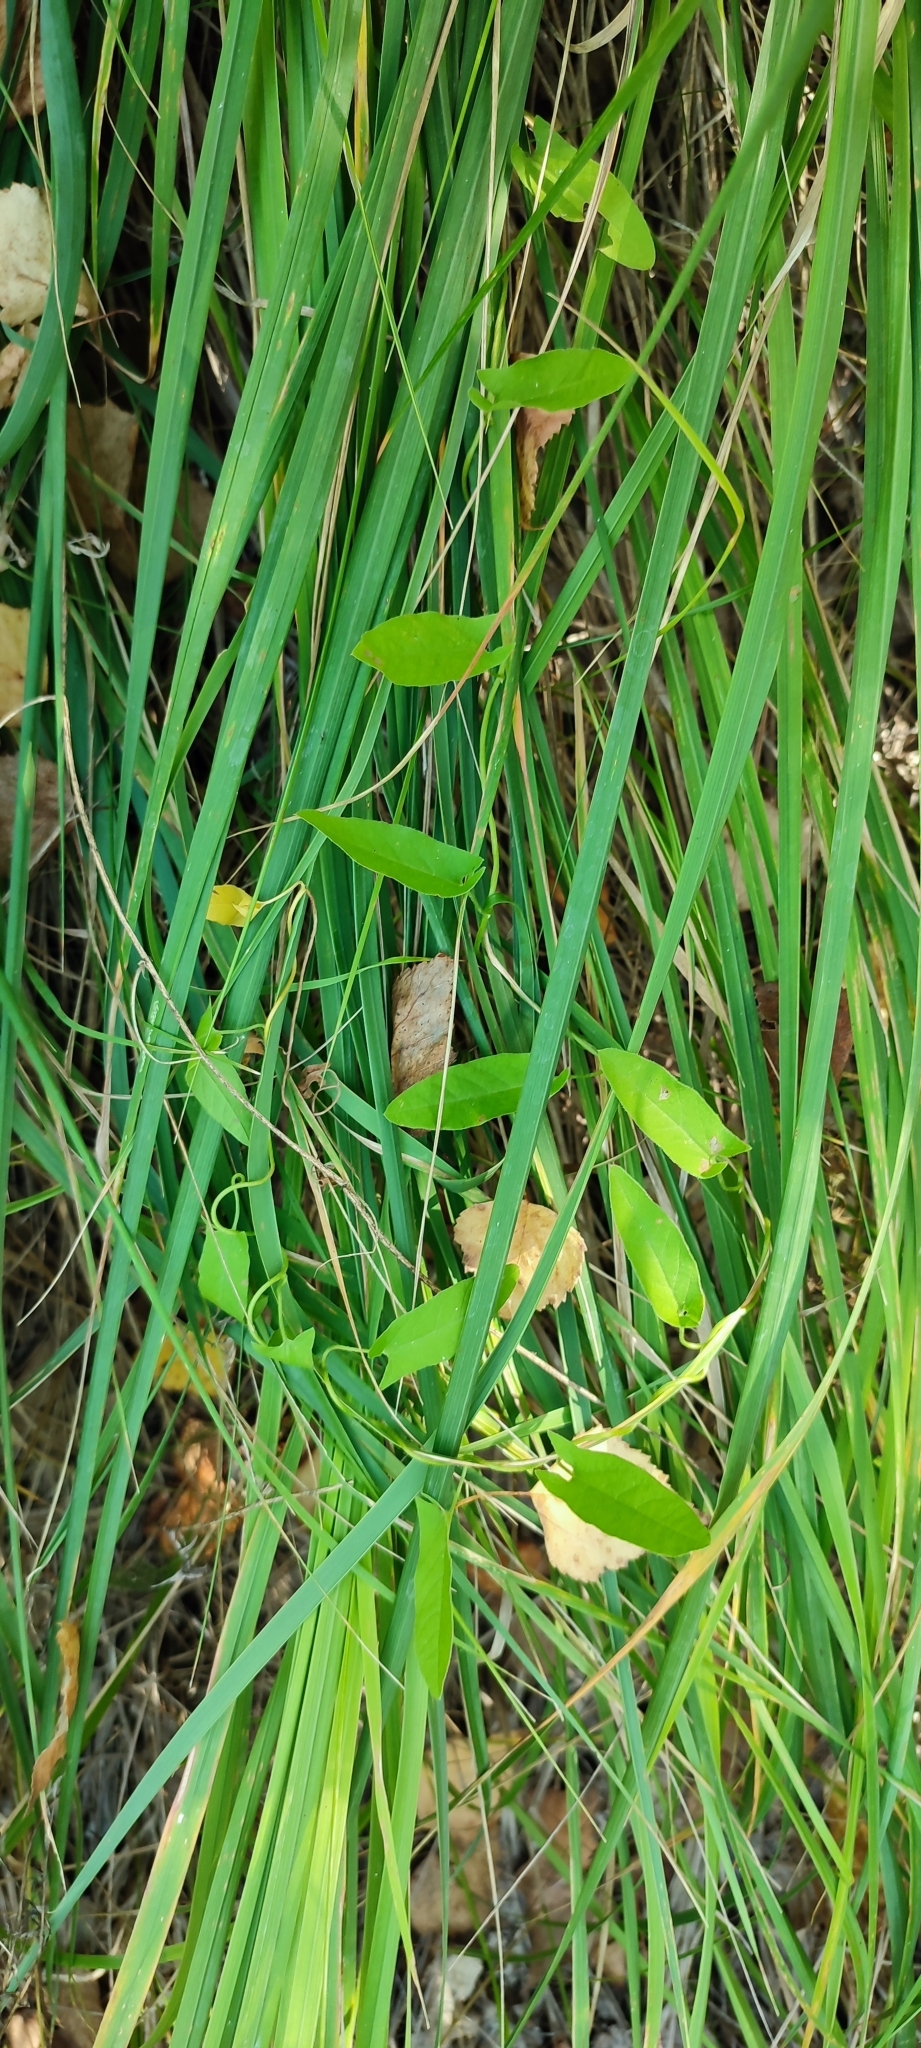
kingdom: Plantae
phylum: Tracheophyta
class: Magnoliopsida
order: Solanales
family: Convolvulaceae
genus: Convolvulus
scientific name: Convolvulus arvensis
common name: Field bindweed
